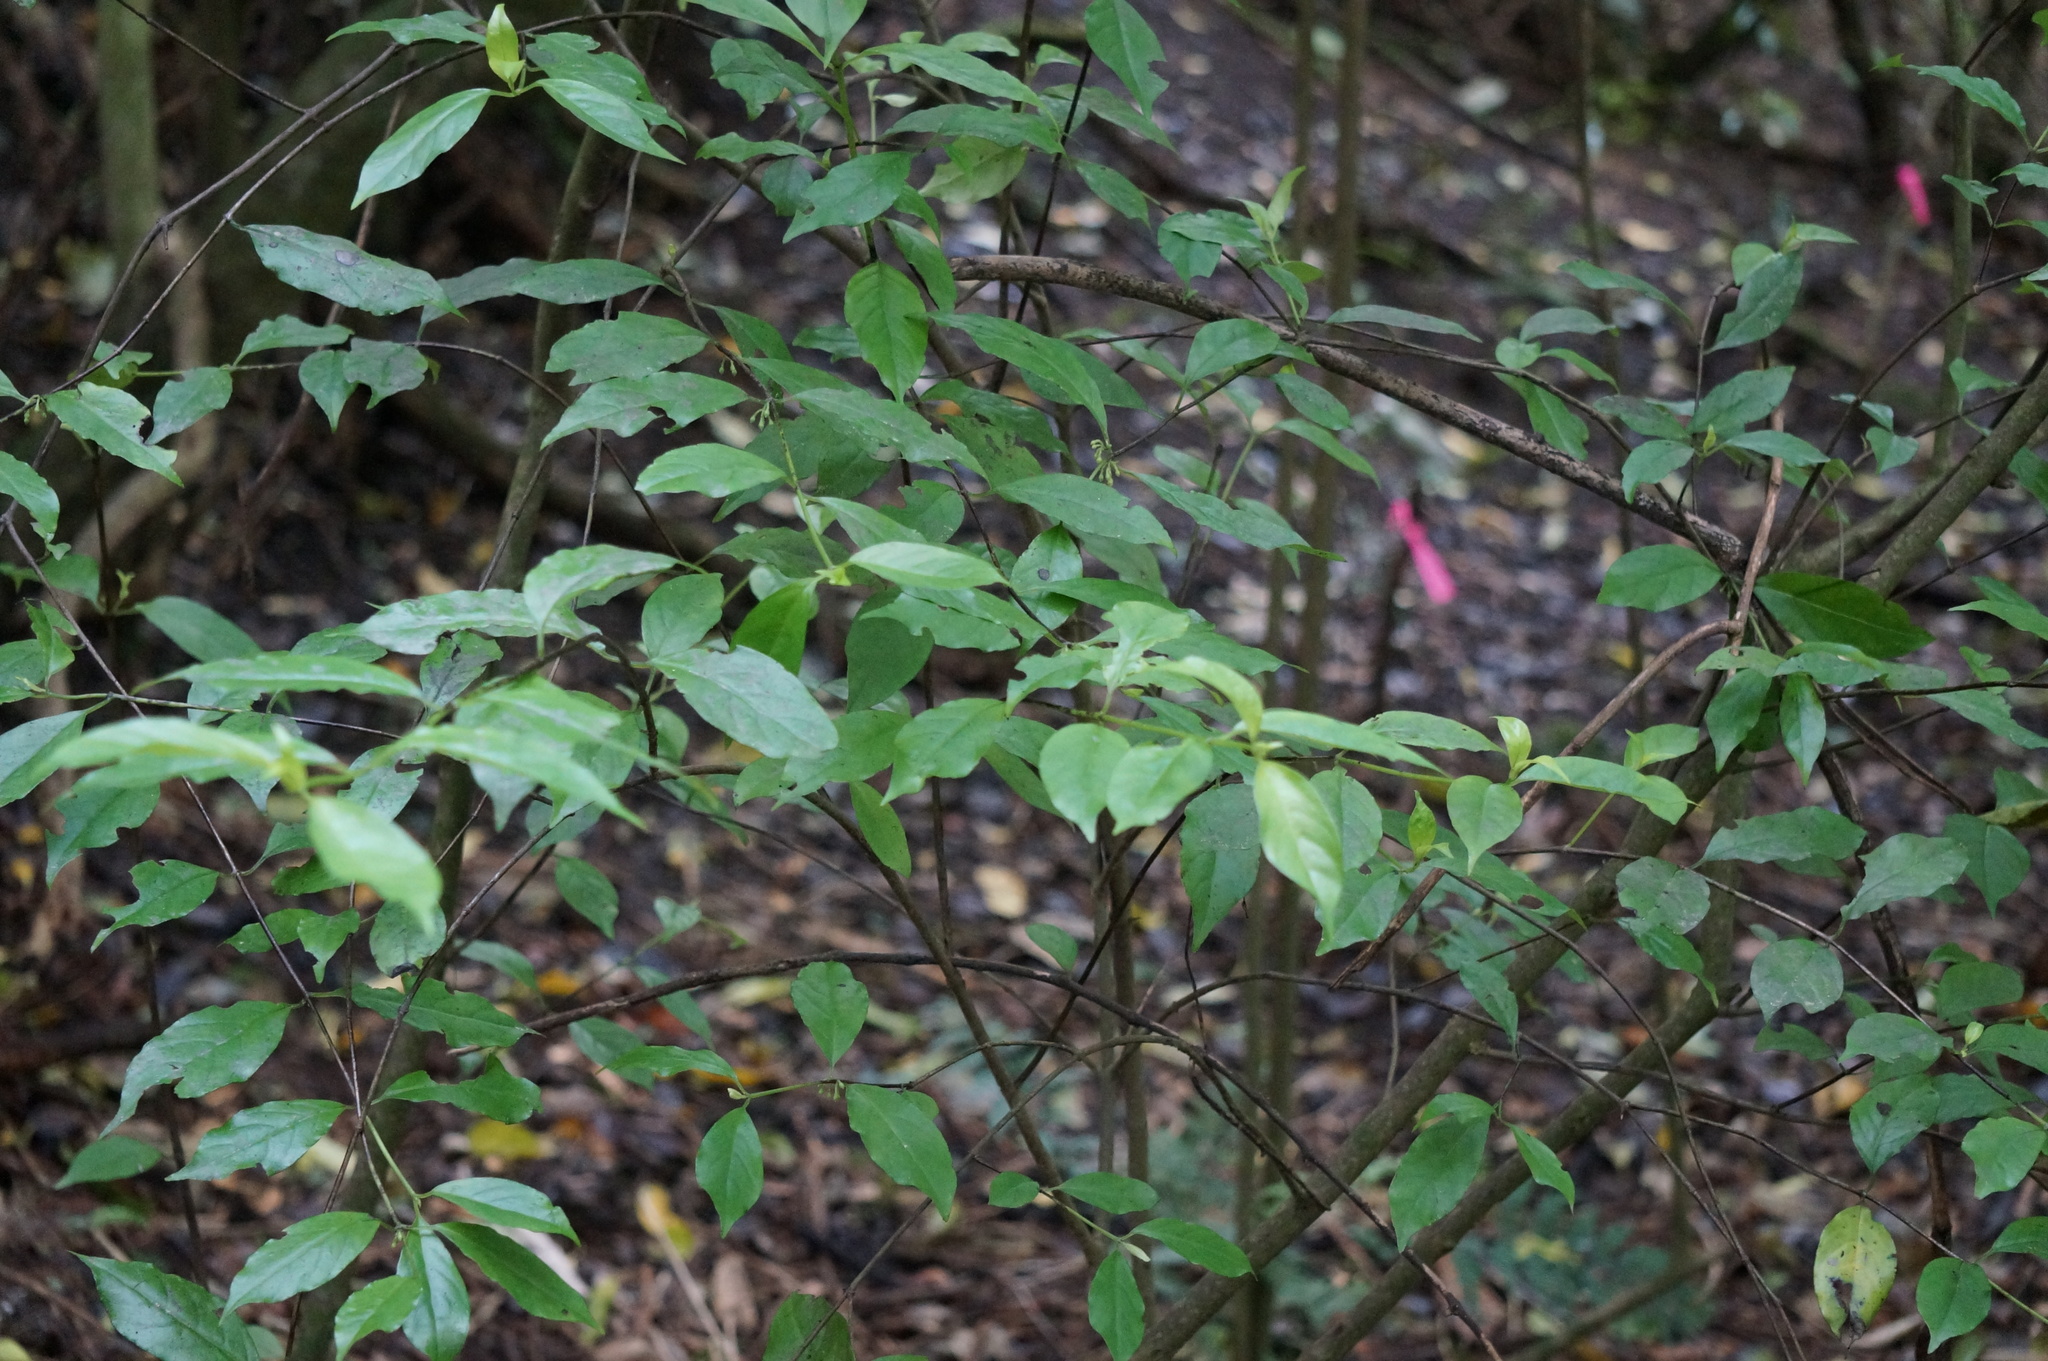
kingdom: Plantae
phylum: Tracheophyta
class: Magnoliopsida
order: Gentianales
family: Loganiaceae
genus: Geniostoma
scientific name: Geniostoma ligustrifolium
